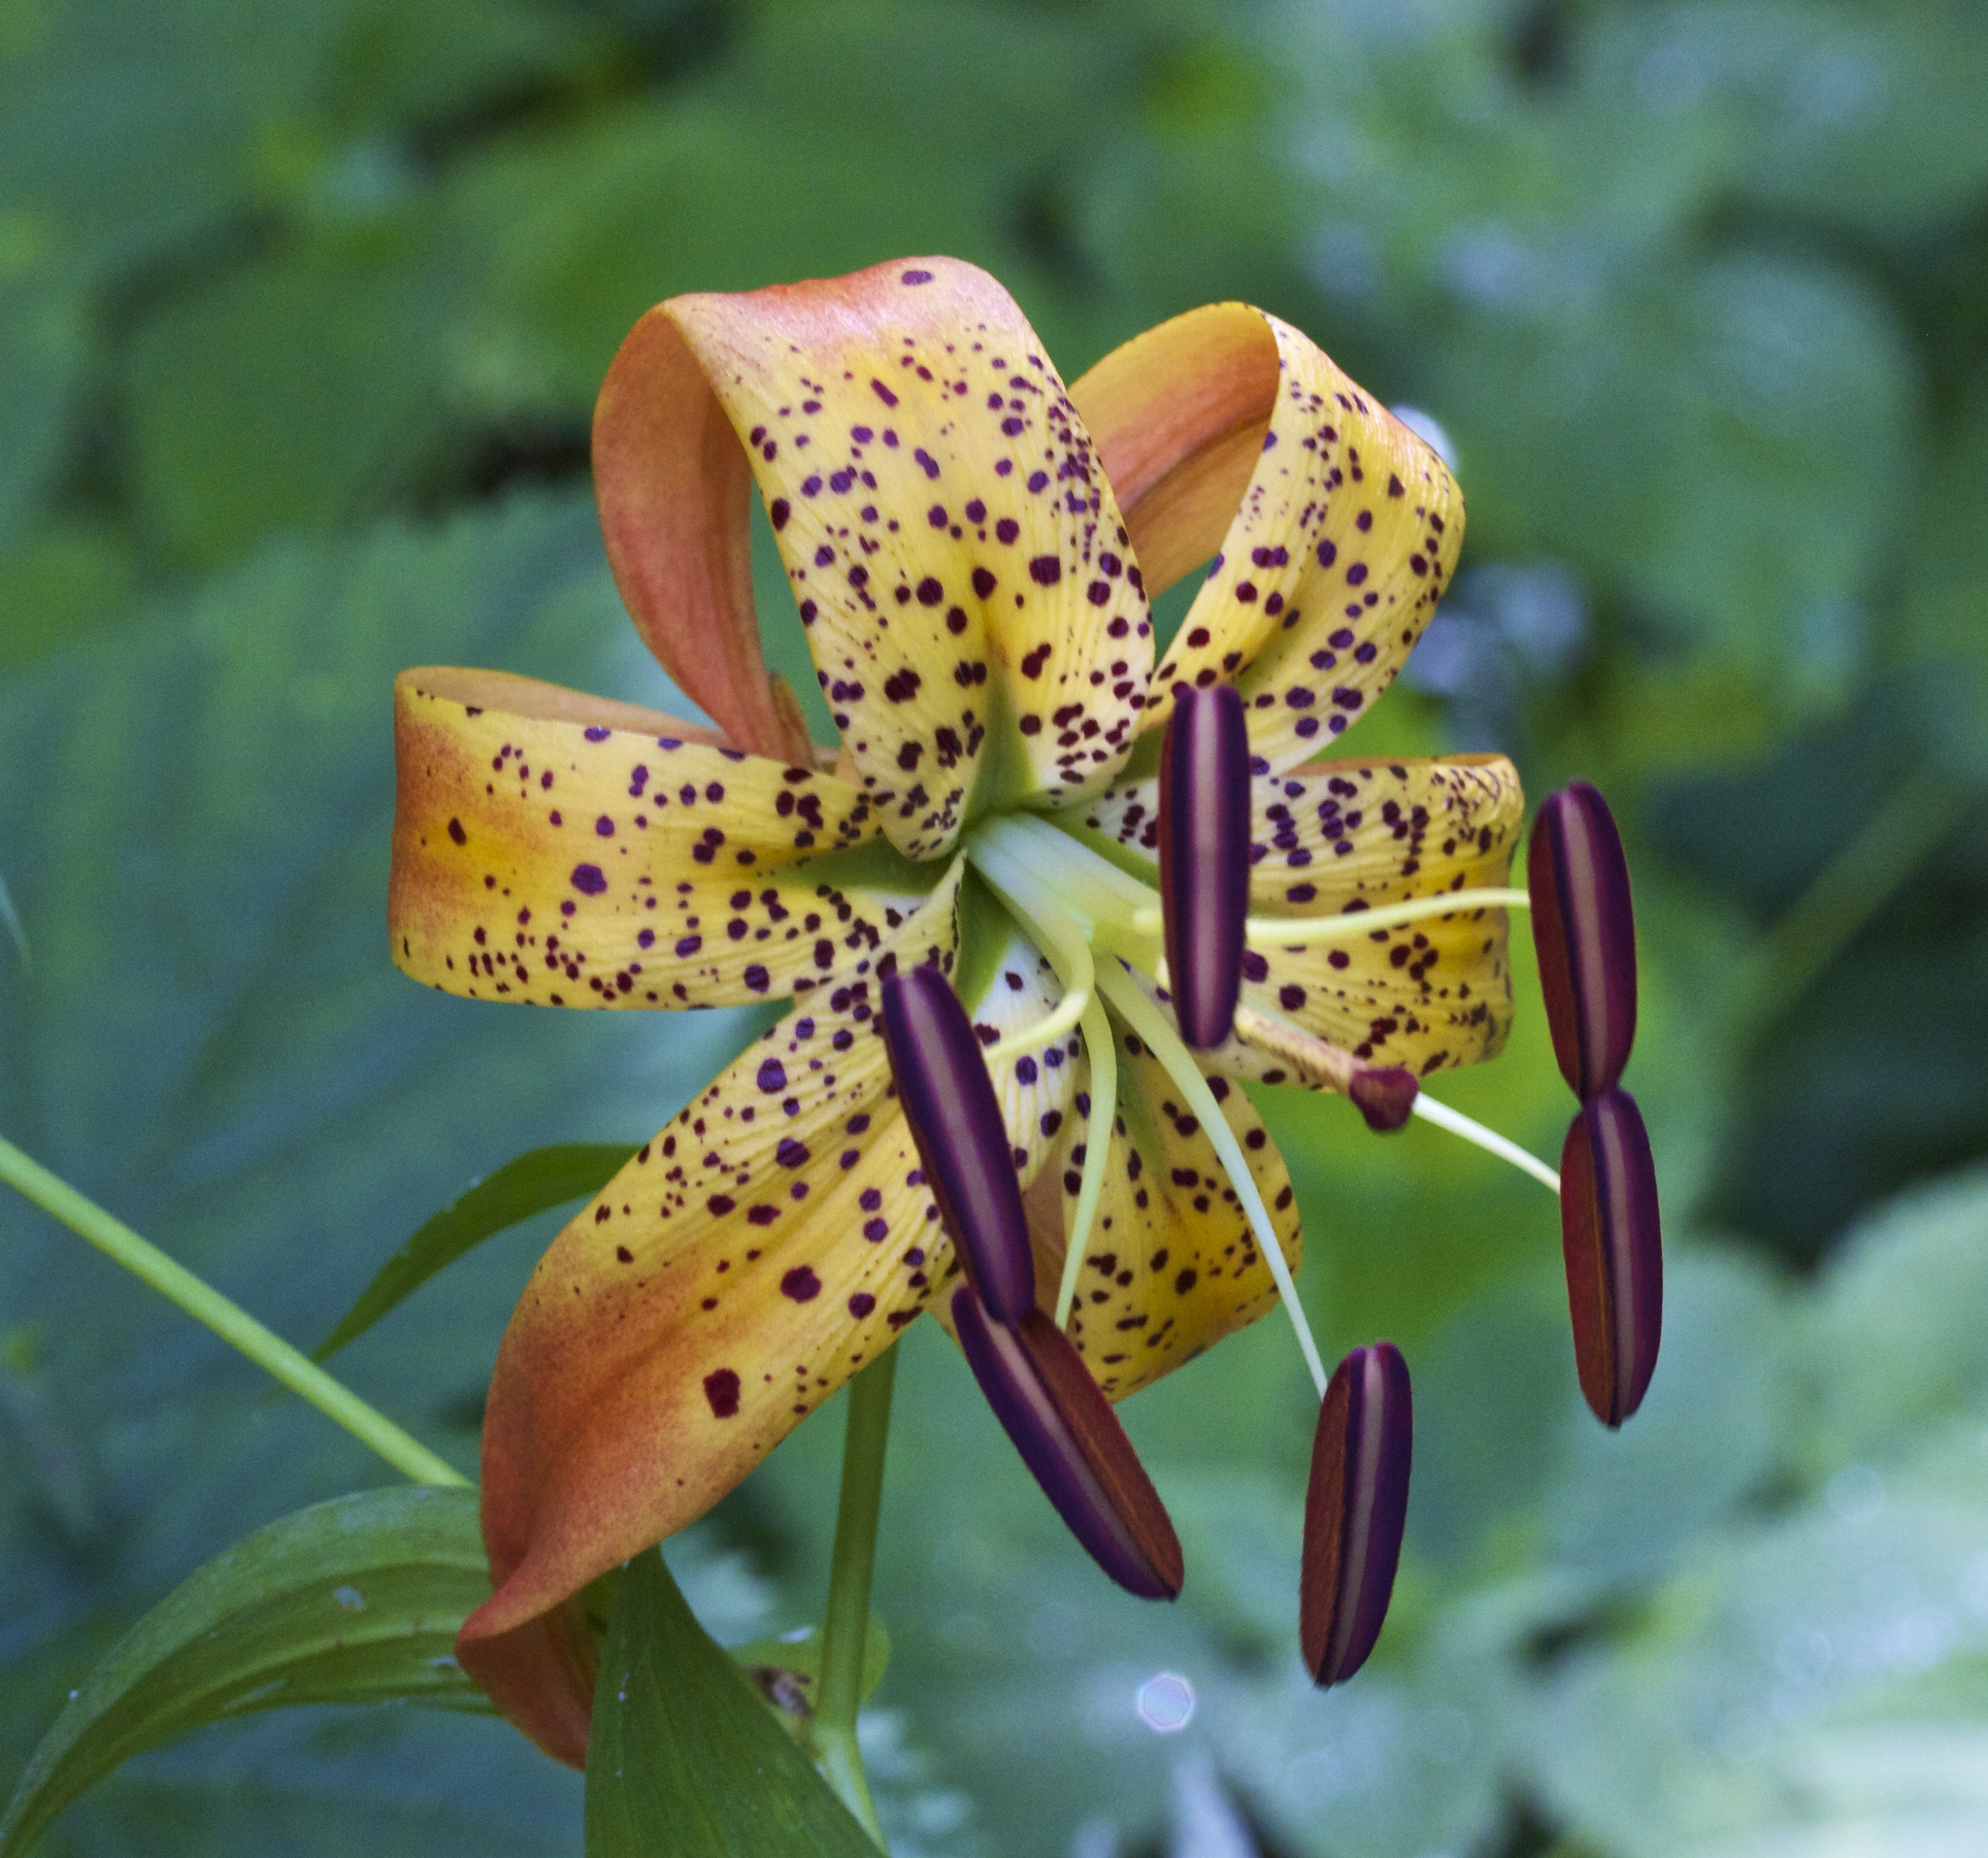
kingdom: Plantae
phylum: Tracheophyta
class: Liliopsida
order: Liliales
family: Liliaceae
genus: Lilium
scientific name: Lilium superbum
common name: American turk's-cap lily
